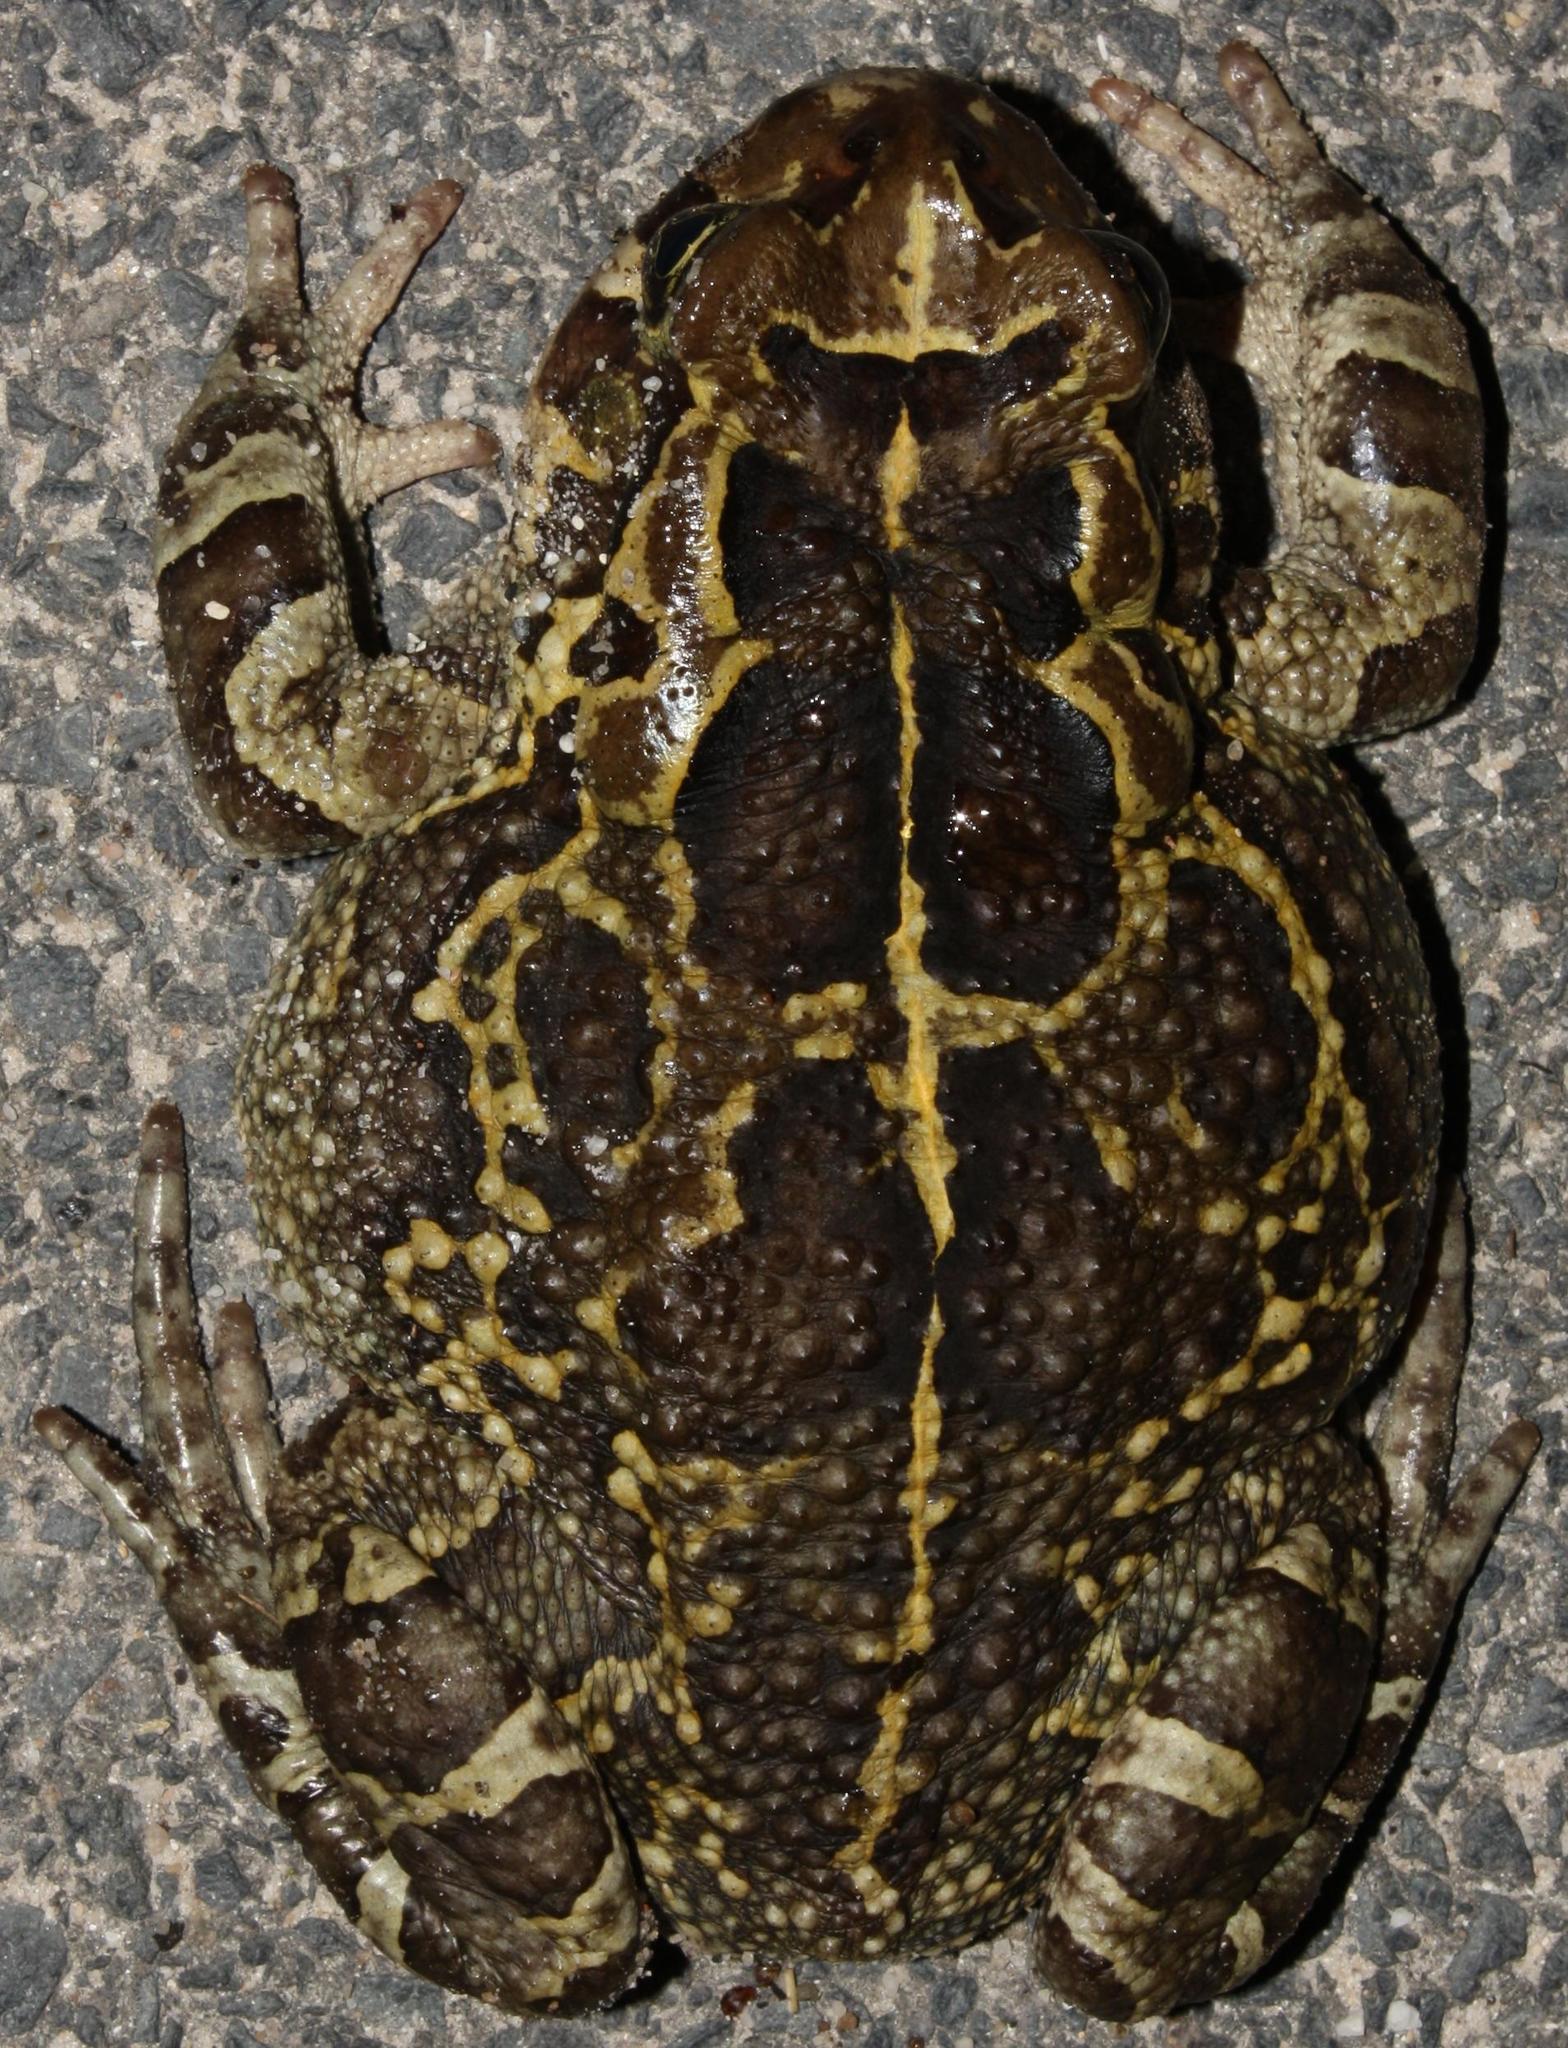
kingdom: Animalia
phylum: Chordata
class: Amphibia
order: Anura
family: Bufonidae
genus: Sclerophrys
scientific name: Sclerophrys pantherina
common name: Panther toad
